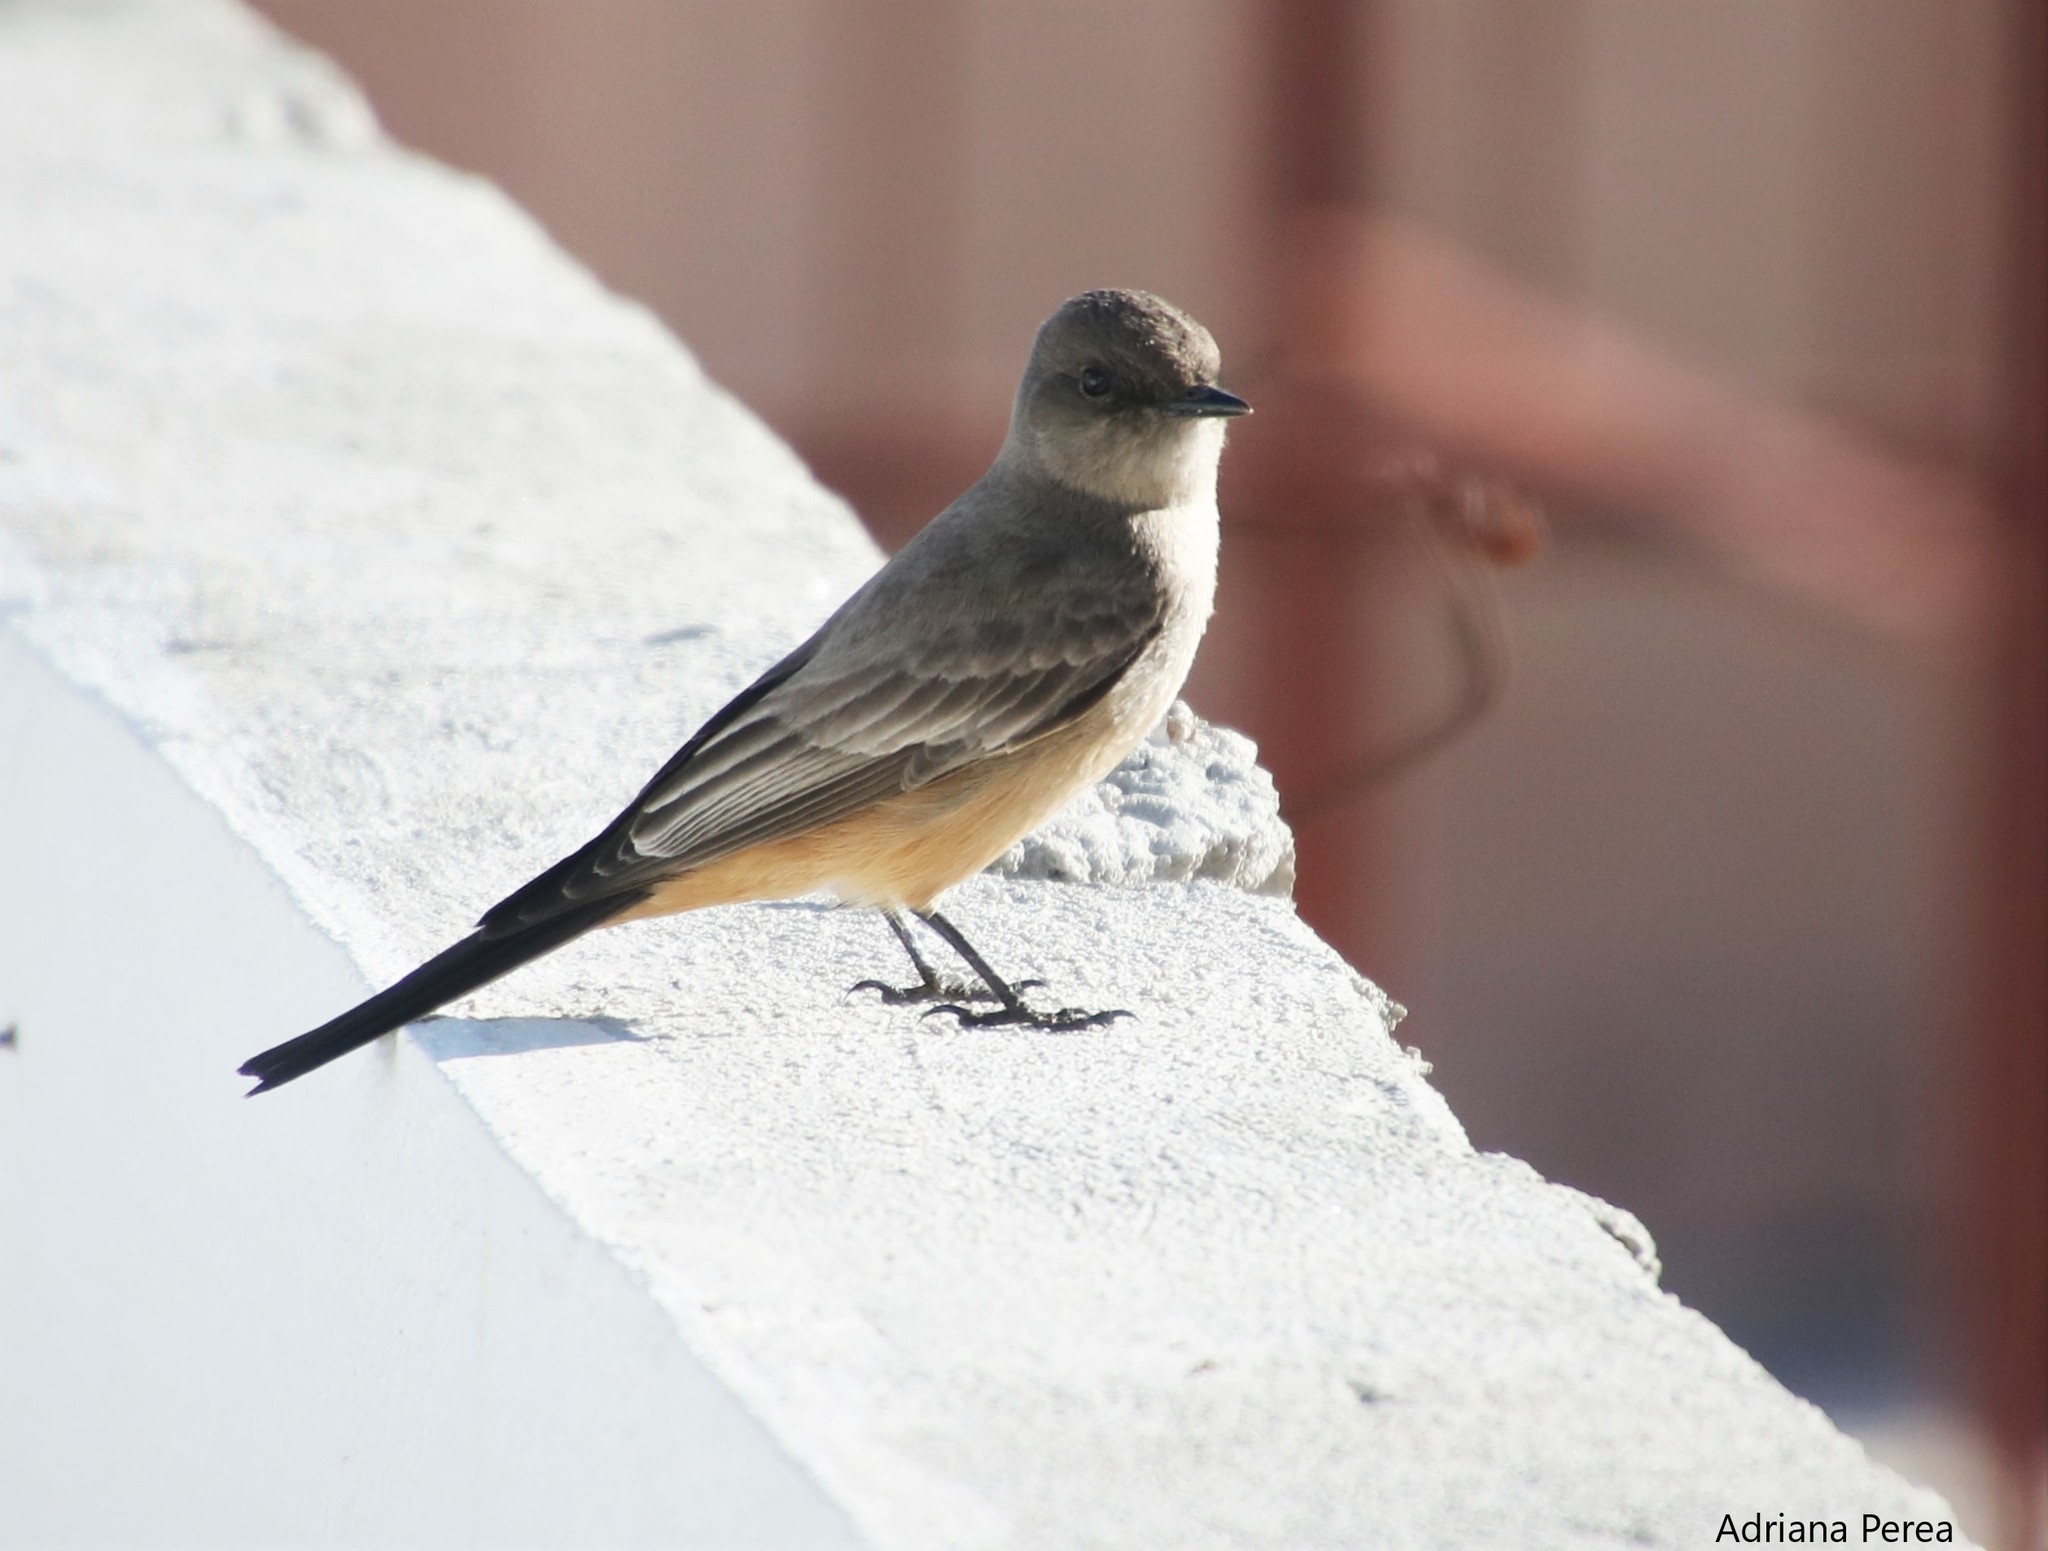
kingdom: Animalia
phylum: Chordata
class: Aves
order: Passeriformes
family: Tyrannidae
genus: Sayornis
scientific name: Sayornis saya
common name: Say's phoebe
